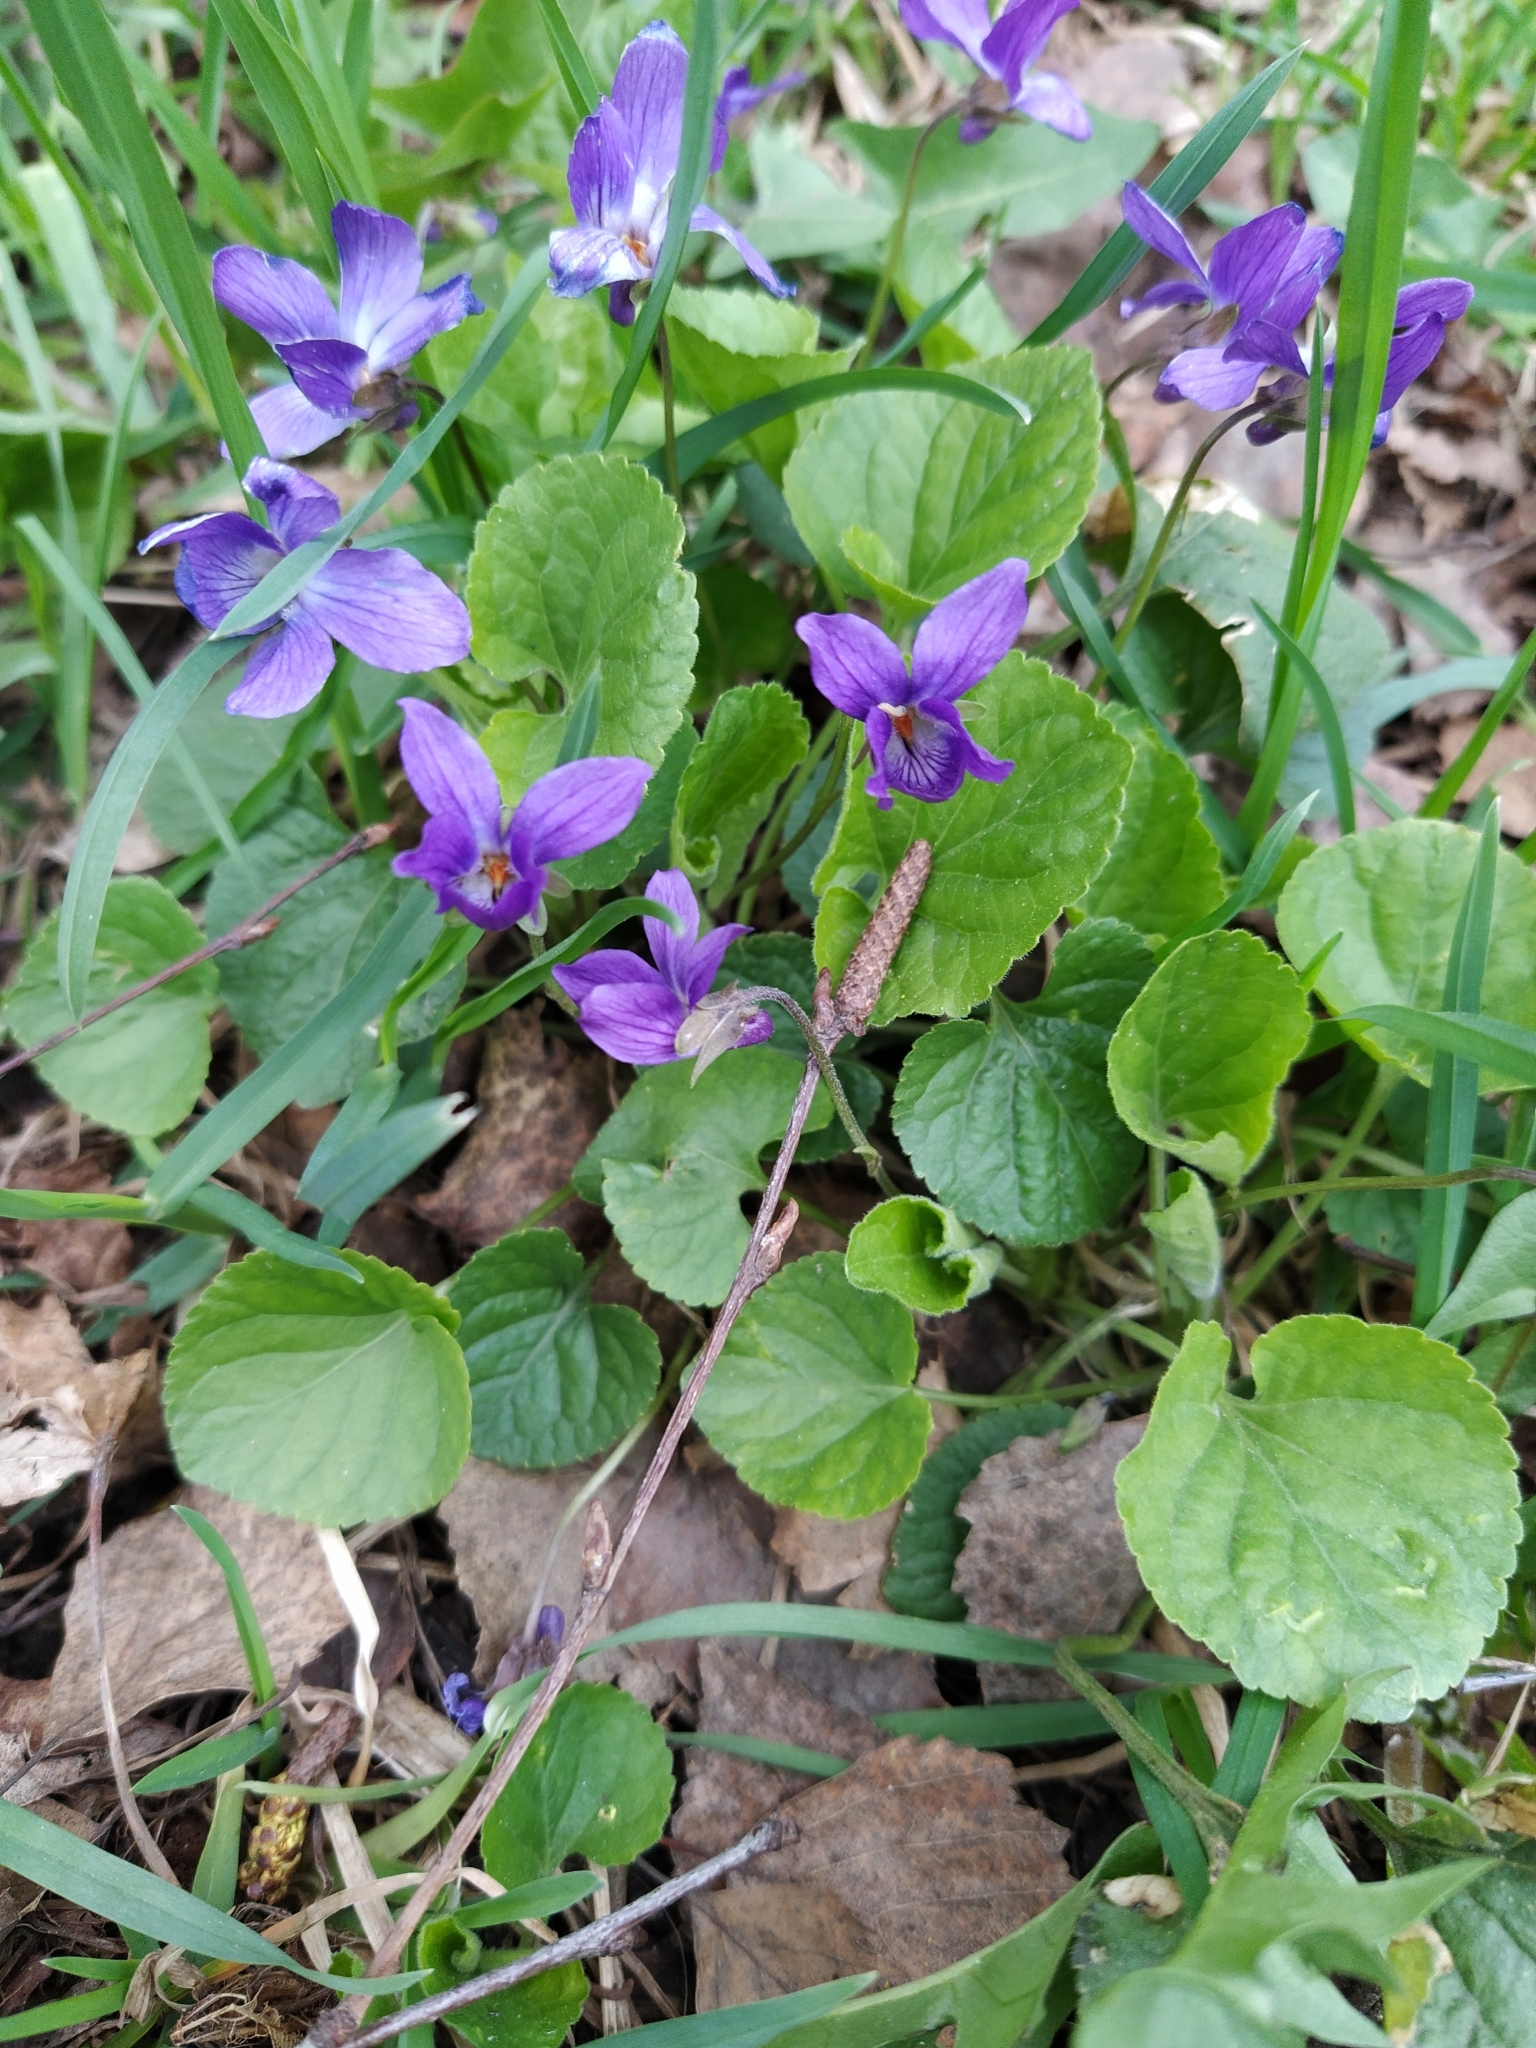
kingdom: Plantae
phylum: Tracheophyta
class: Magnoliopsida
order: Malpighiales
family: Violaceae
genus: Viola
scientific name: Viola odorata
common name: Sweet violet
